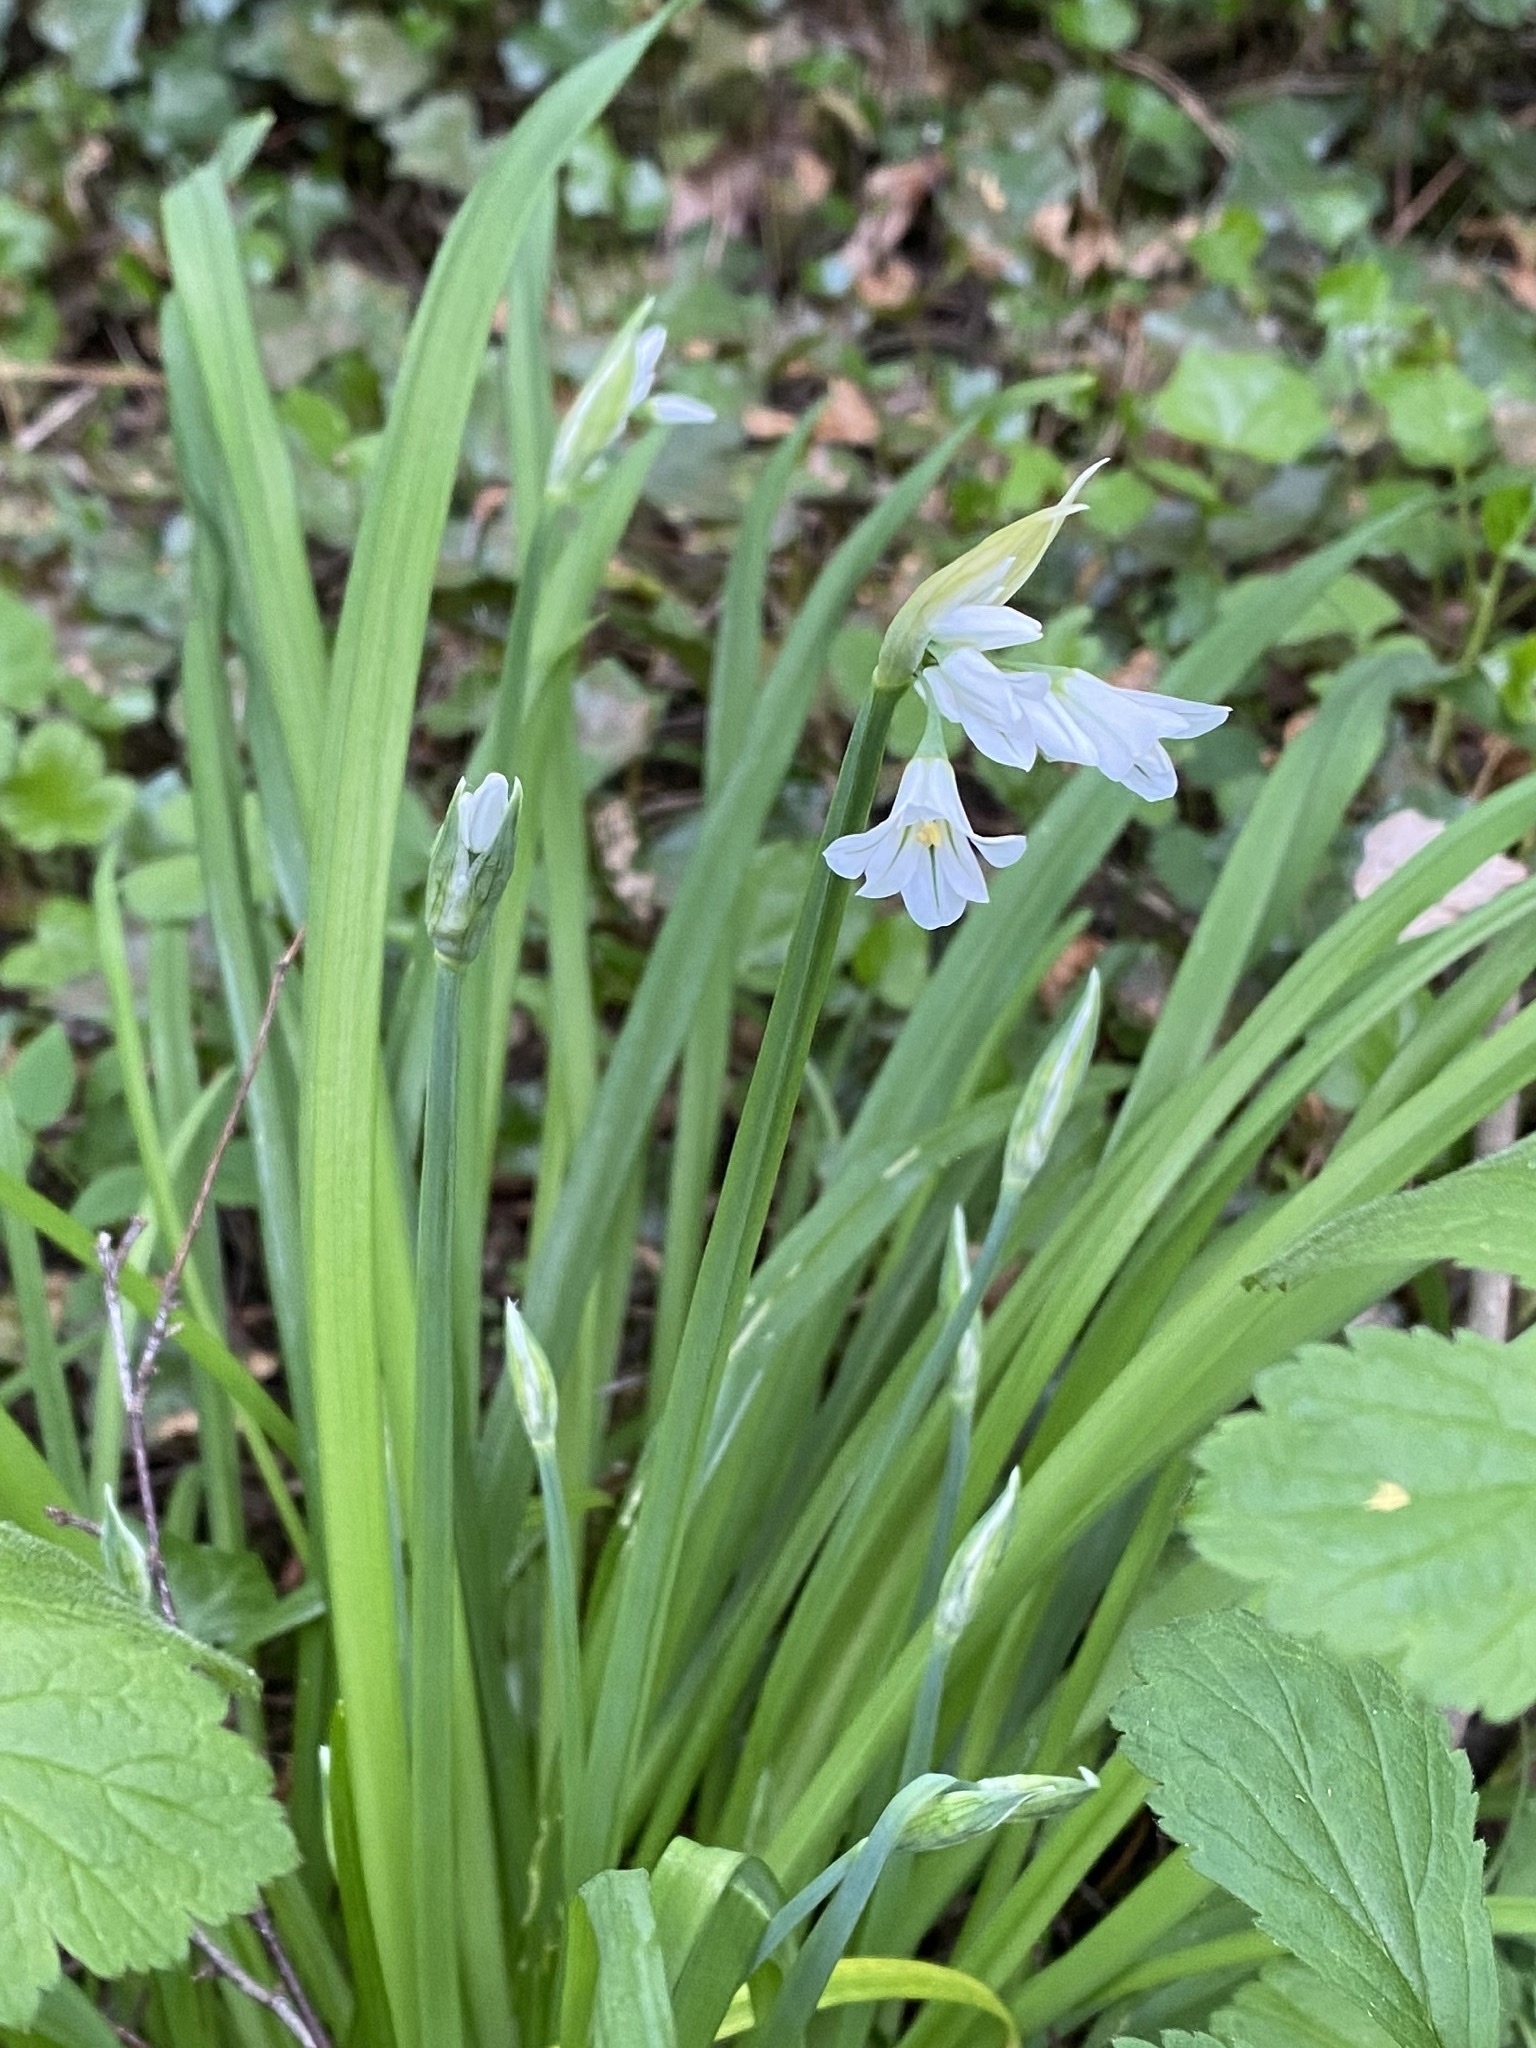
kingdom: Plantae
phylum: Tracheophyta
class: Liliopsida
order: Asparagales
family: Amaryllidaceae
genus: Allium
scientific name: Allium triquetrum
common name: Three-cornered garlic
